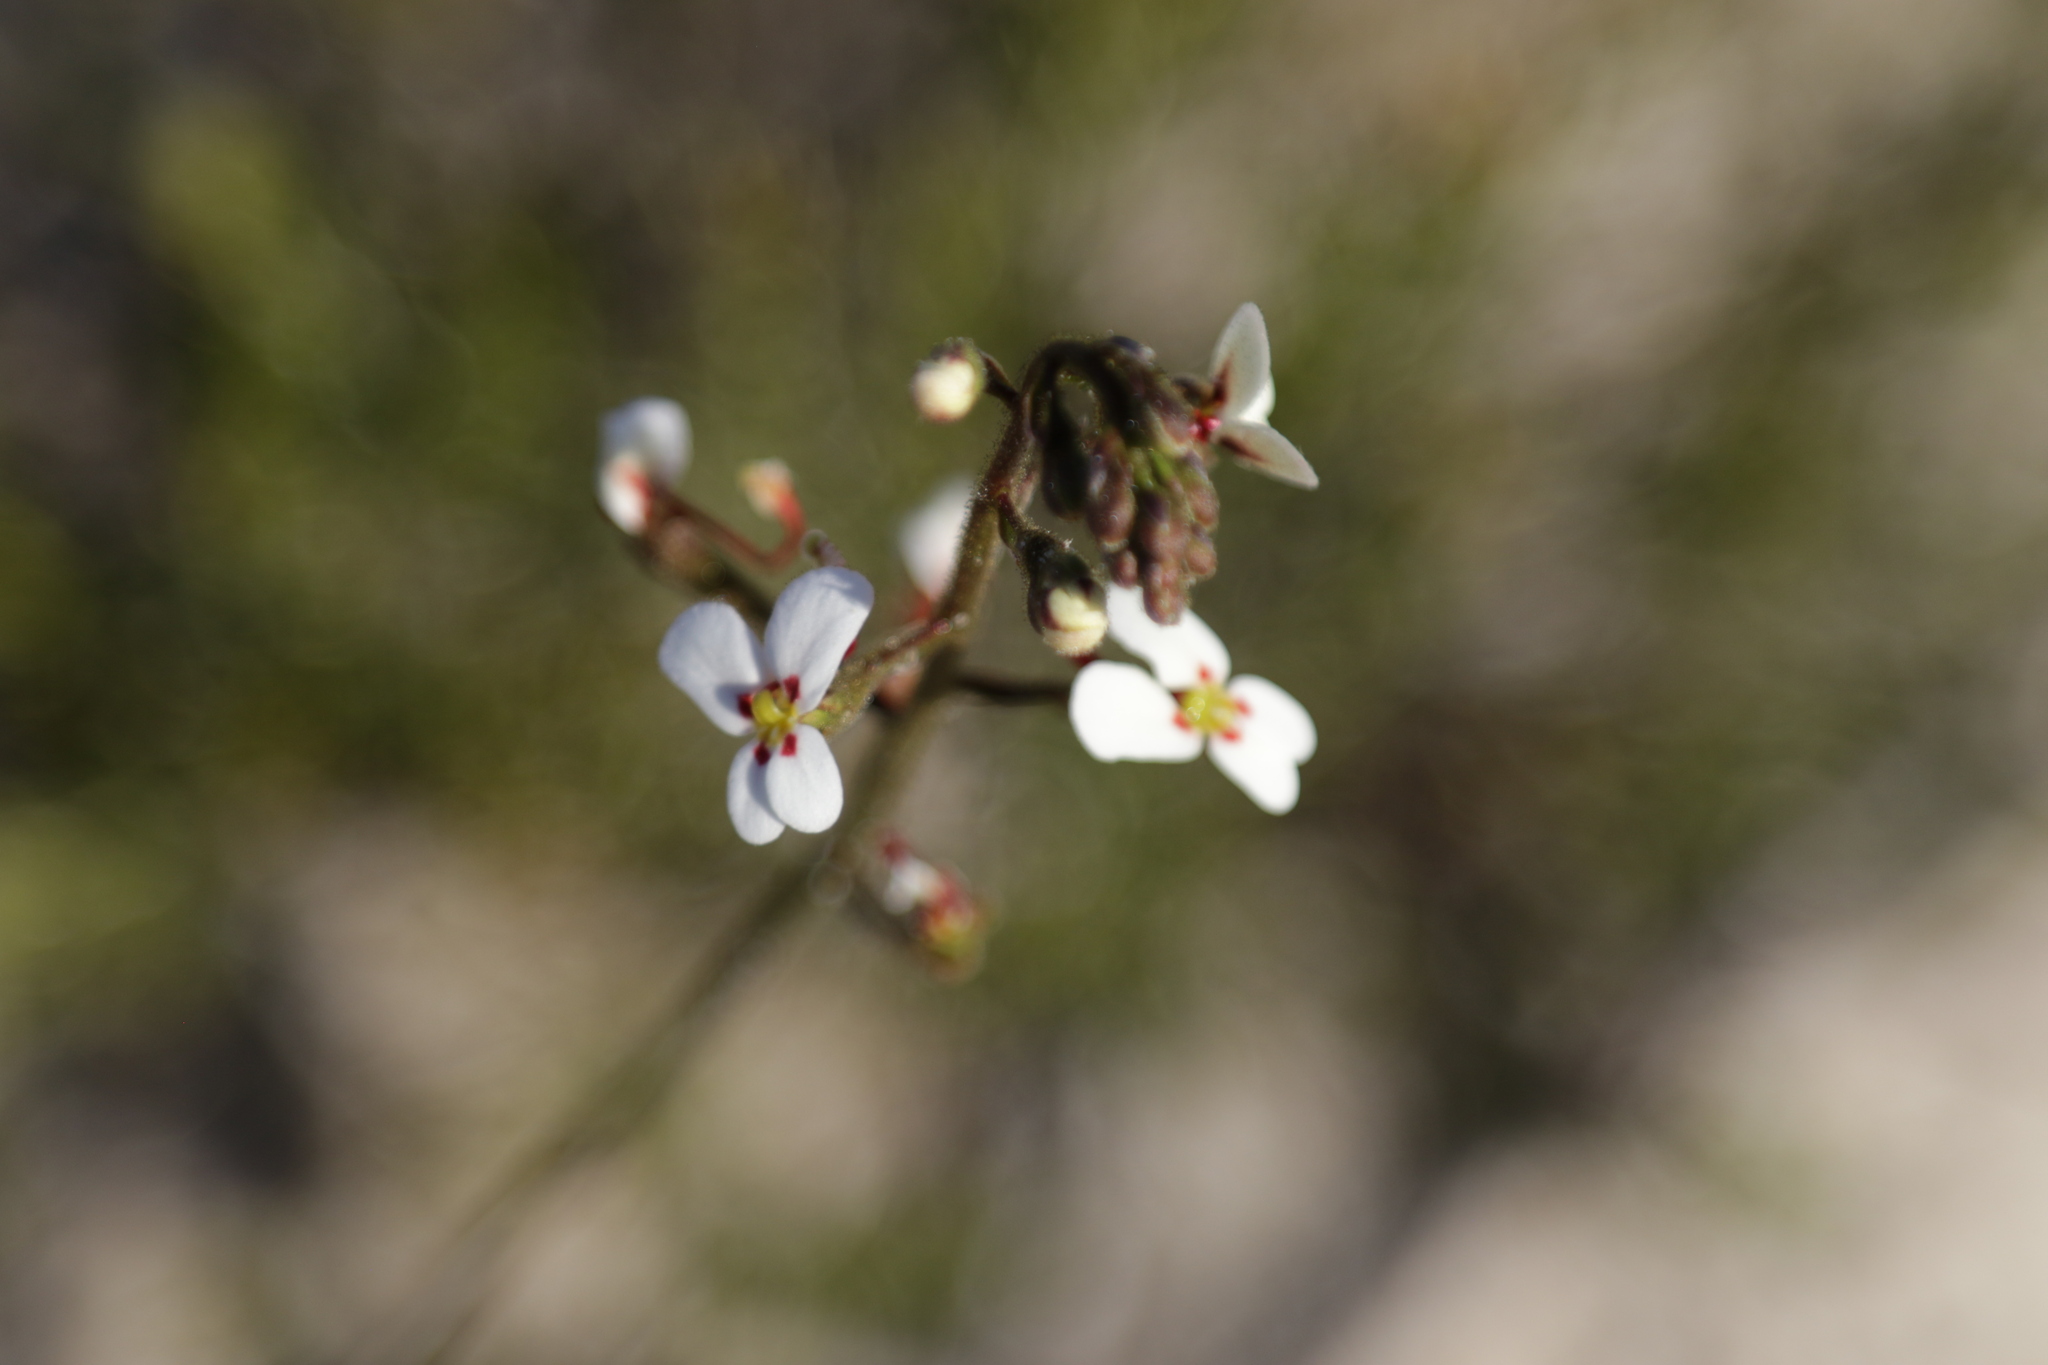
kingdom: Plantae
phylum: Tracheophyta
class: Magnoliopsida
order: Asterales
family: Stylidiaceae
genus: Stylidium
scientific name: Stylidium bicolor
